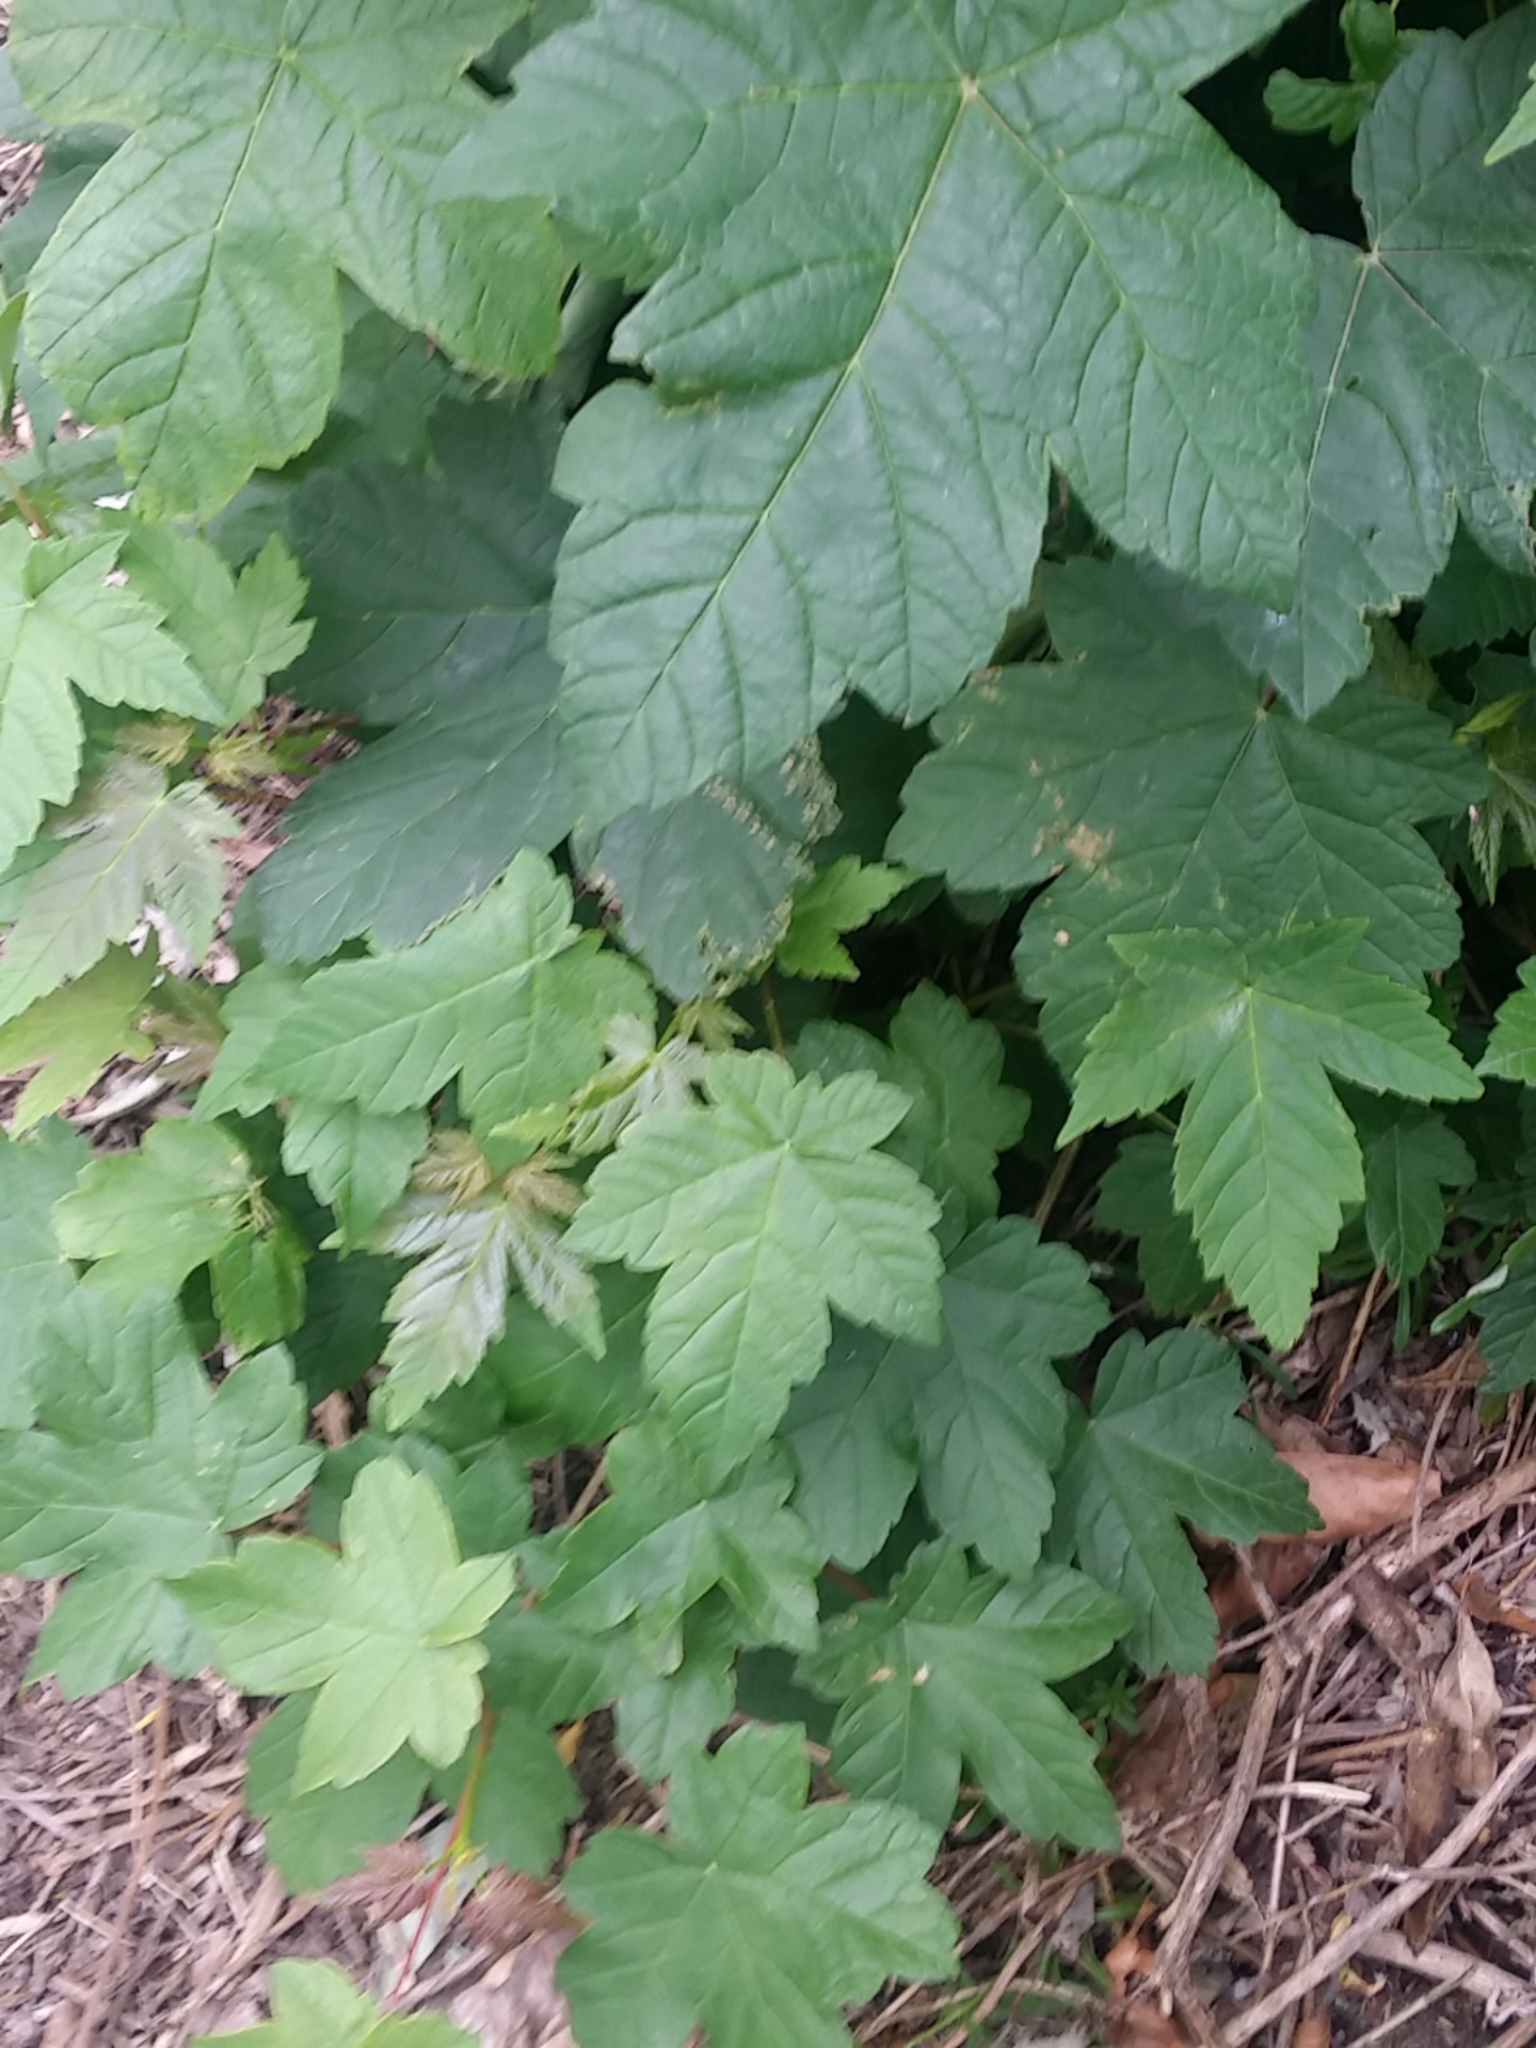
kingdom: Plantae
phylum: Tracheophyta
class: Magnoliopsida
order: Sapindales
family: Sapindaceae
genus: Acer
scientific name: Acer pseudoplatanus
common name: Sycamore
